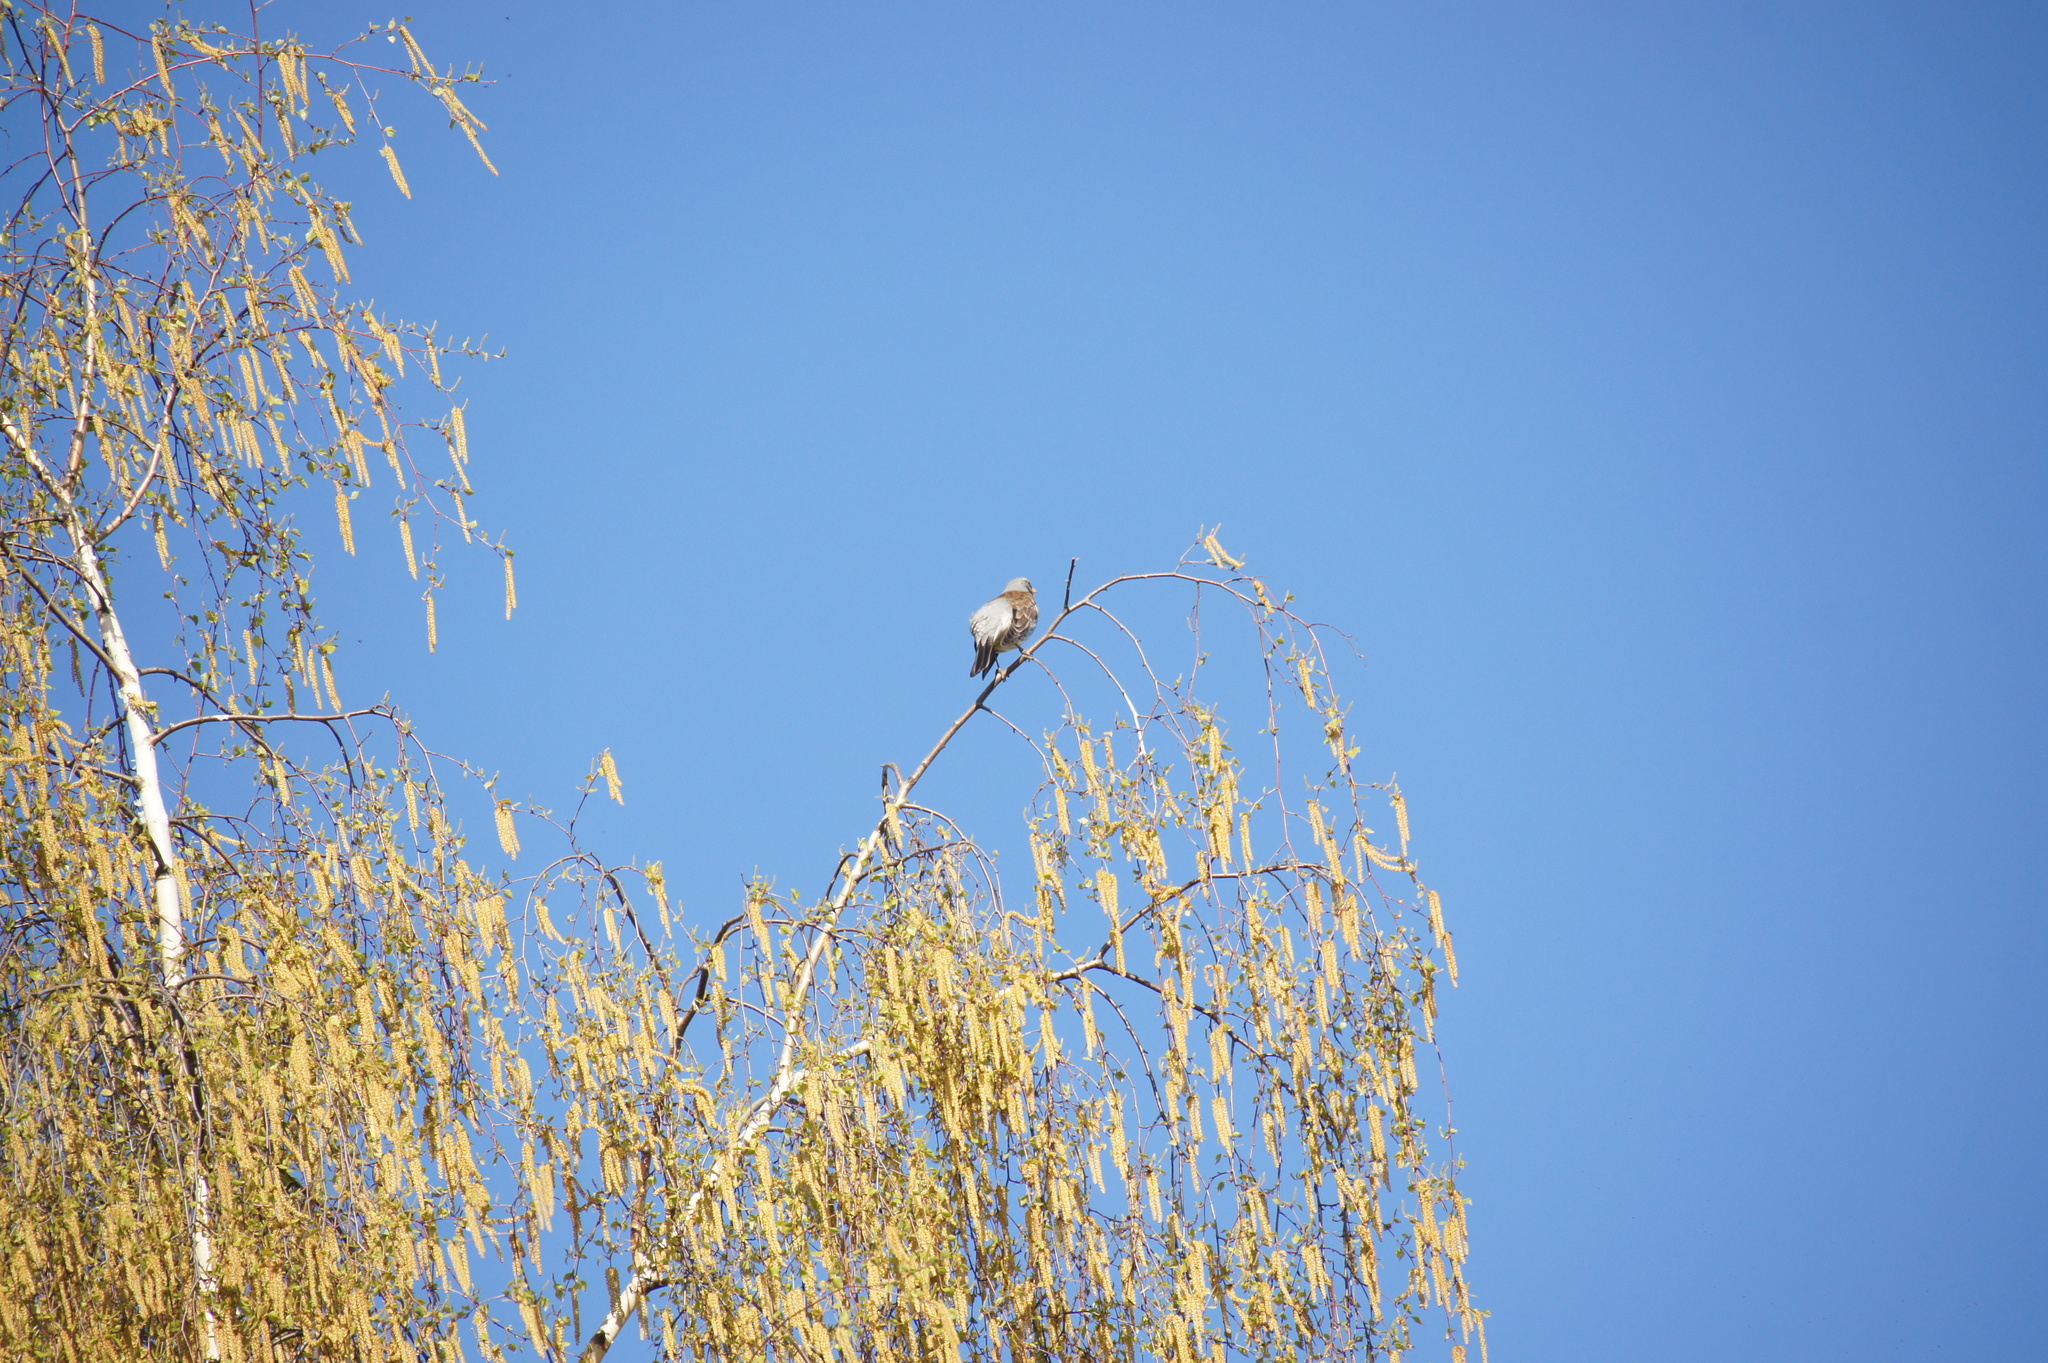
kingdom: Animalia
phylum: Chordata
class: Aves
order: Passeriformes
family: Turdidae
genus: Turdus
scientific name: Turdus pilaris
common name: Fieldfare
